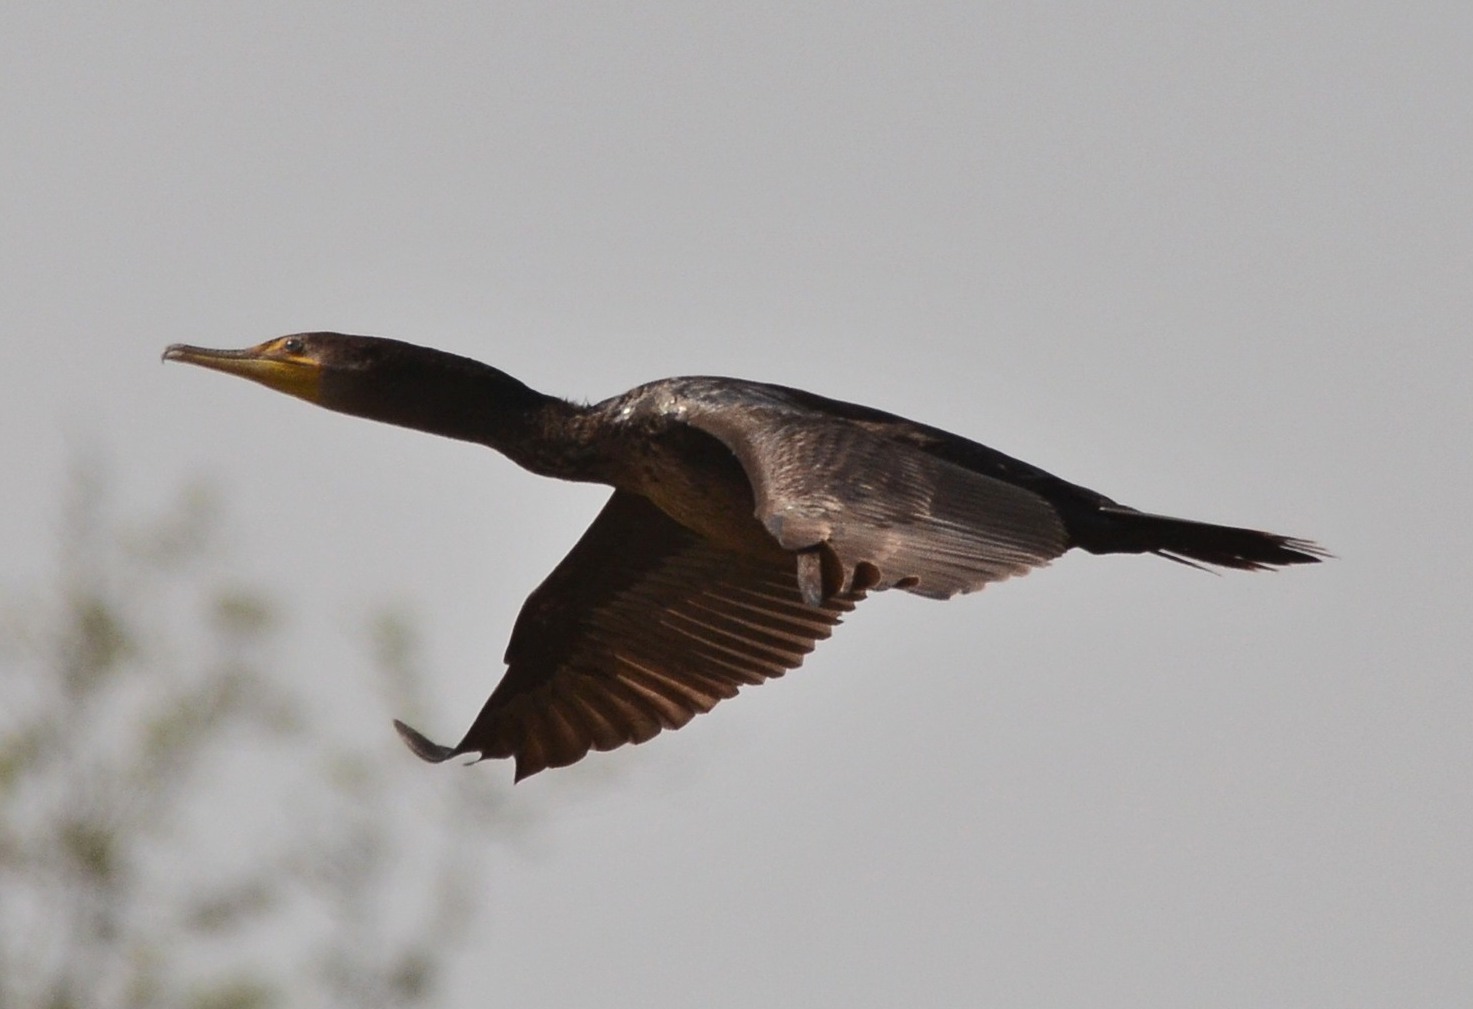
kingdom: Animalia
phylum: Chordata
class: Aves
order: Suliformes
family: Phalacrocoracidae
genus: Phalacrocorax
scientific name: Phalacrocorax auritus
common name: Double-crested cormorant
